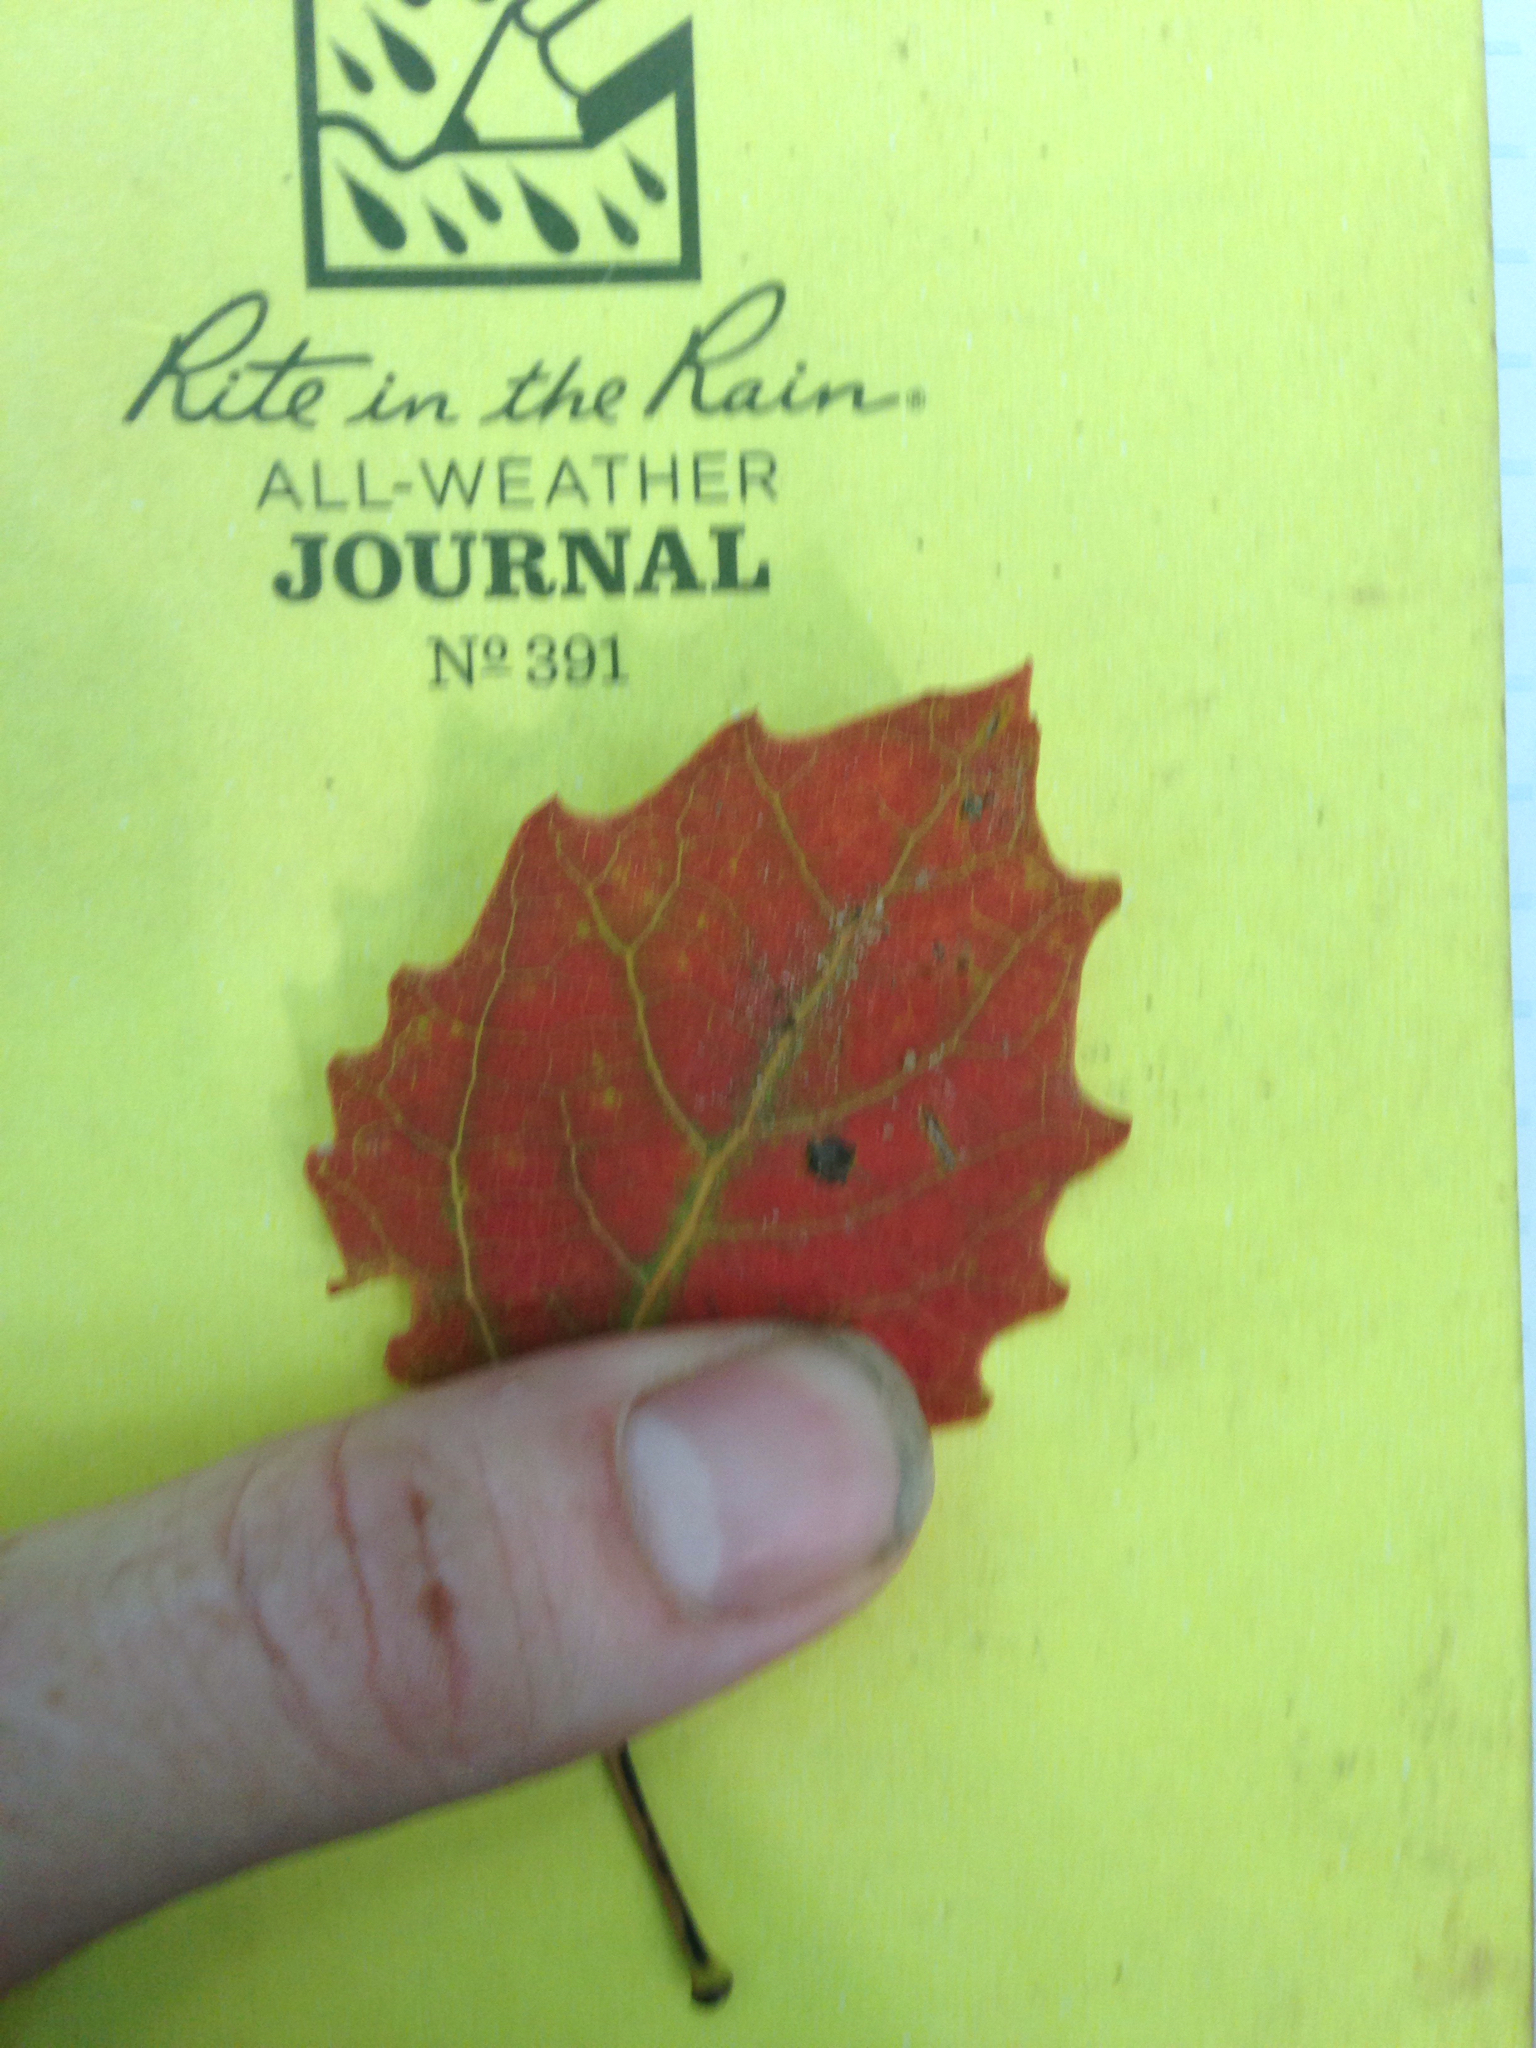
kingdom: Plantae
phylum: Tracheophyta
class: Magnoliopsida
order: Malpighiales
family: Salicaceae
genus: Populus
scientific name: Populus grandidentata
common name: Bigtooth aspen
